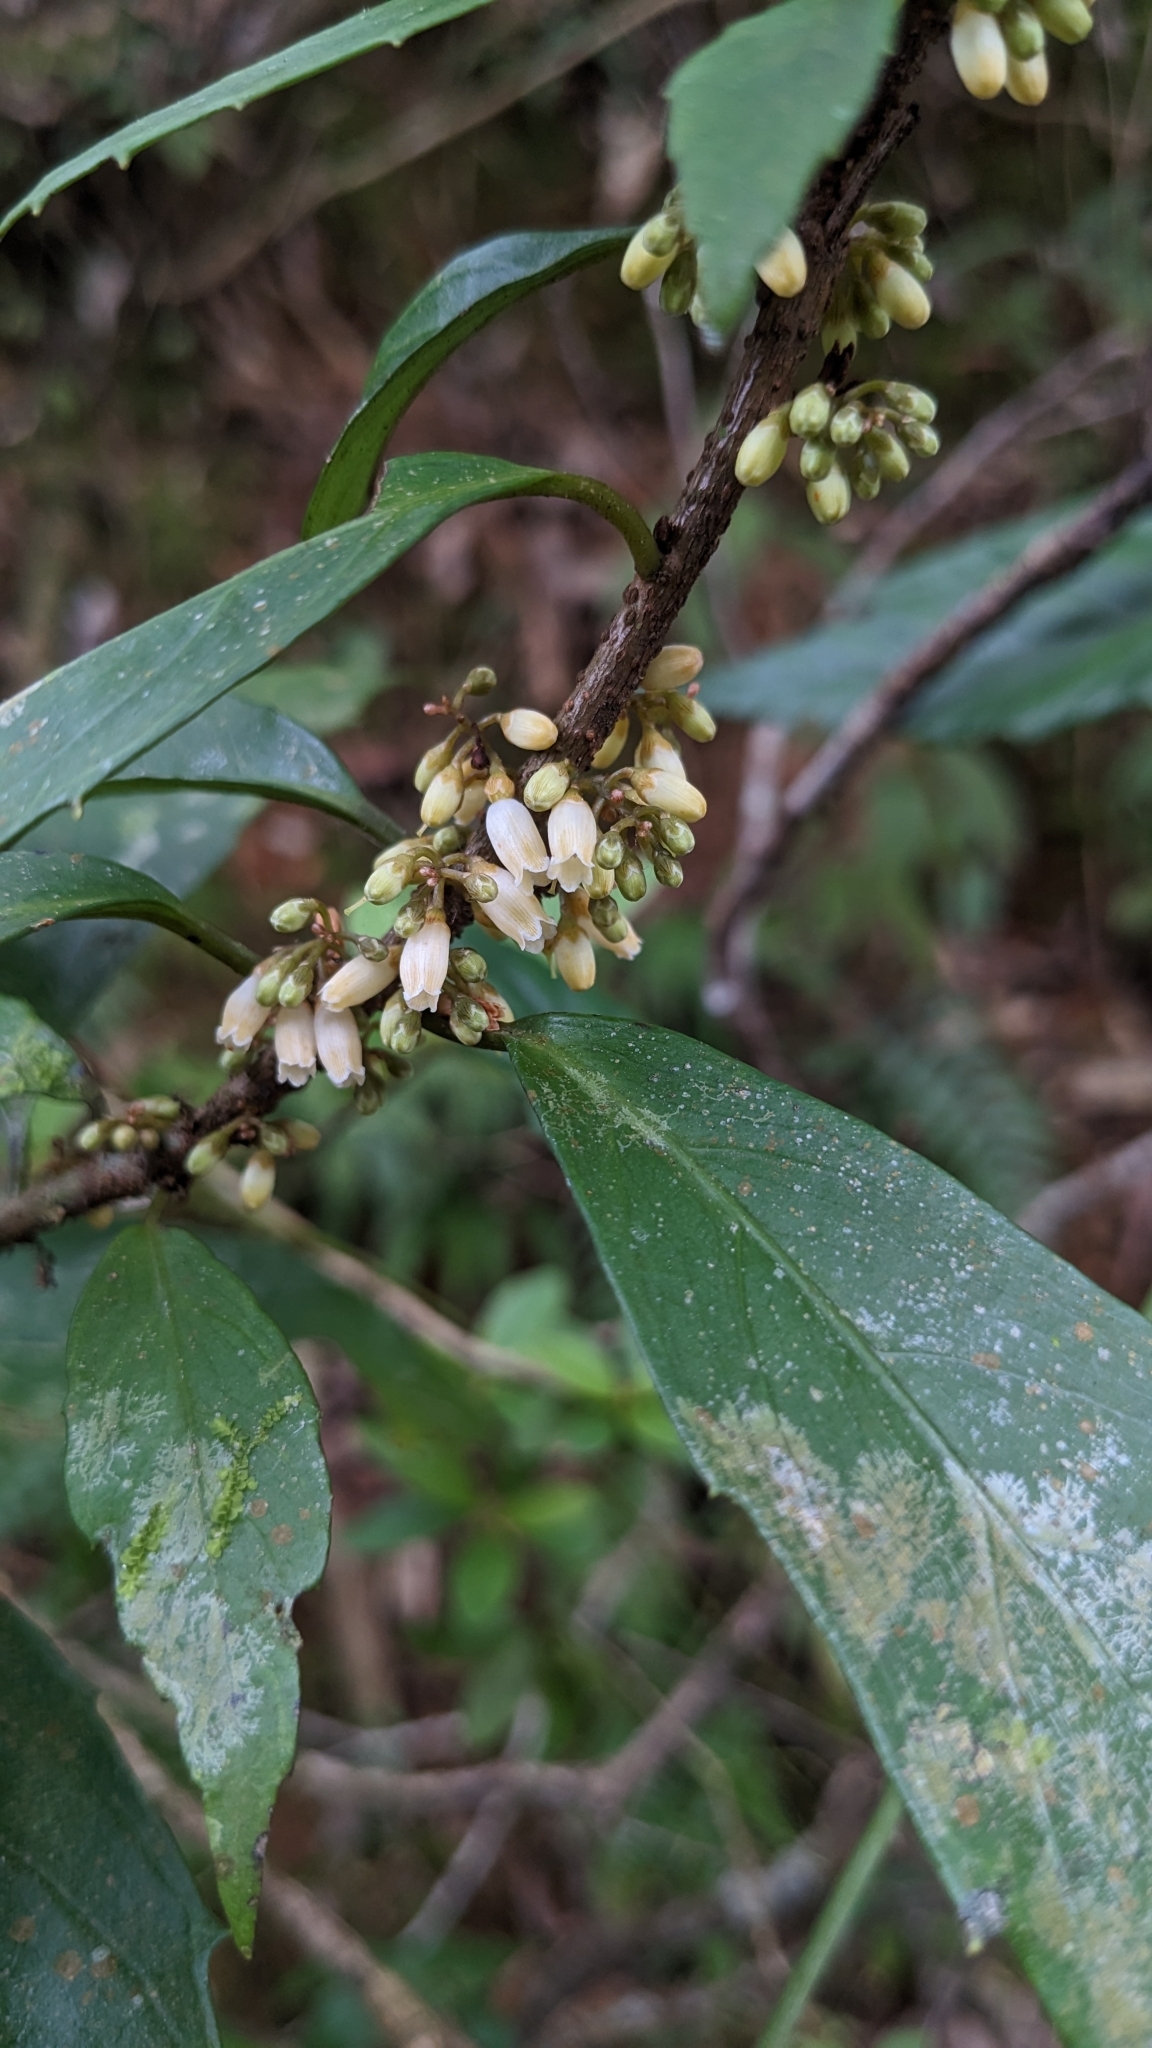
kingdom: Plantae
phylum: Tracheophyta
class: Magnoliopsida
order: Ericales
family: Primulaceae
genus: Maesa
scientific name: Maesa japonica
